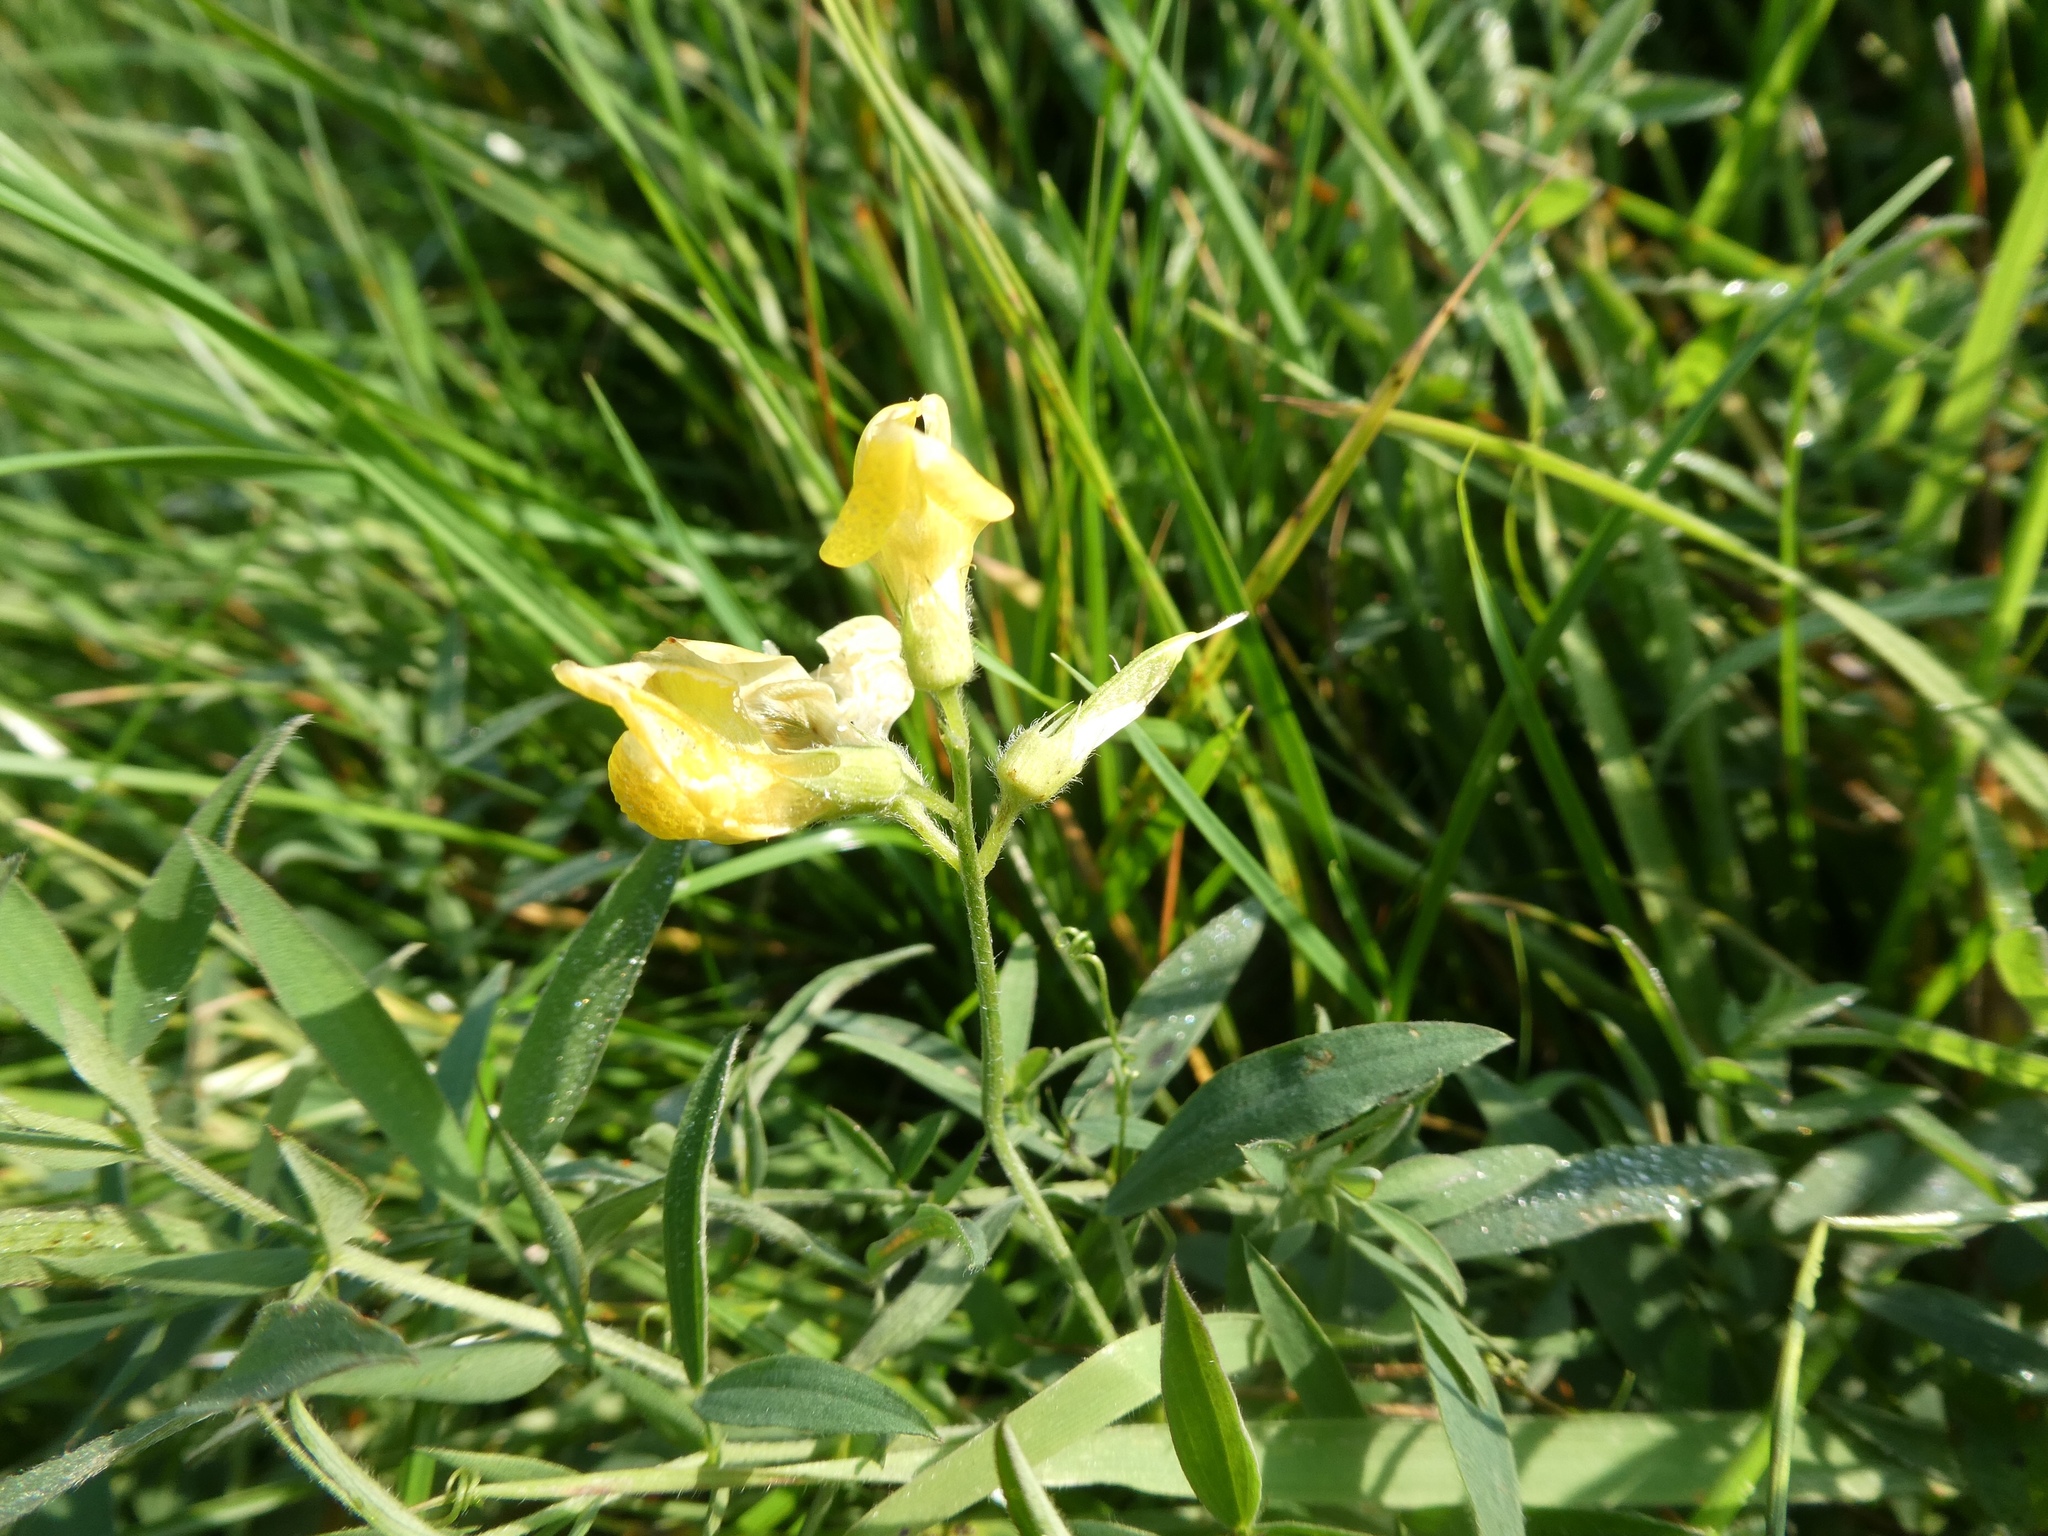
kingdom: Plantae
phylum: Tracheophyta
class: Magnoliopsida
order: Fabales
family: Fabaceae
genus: Lathyrus
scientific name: Lathyrus pratensis
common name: Meadow vetchling
